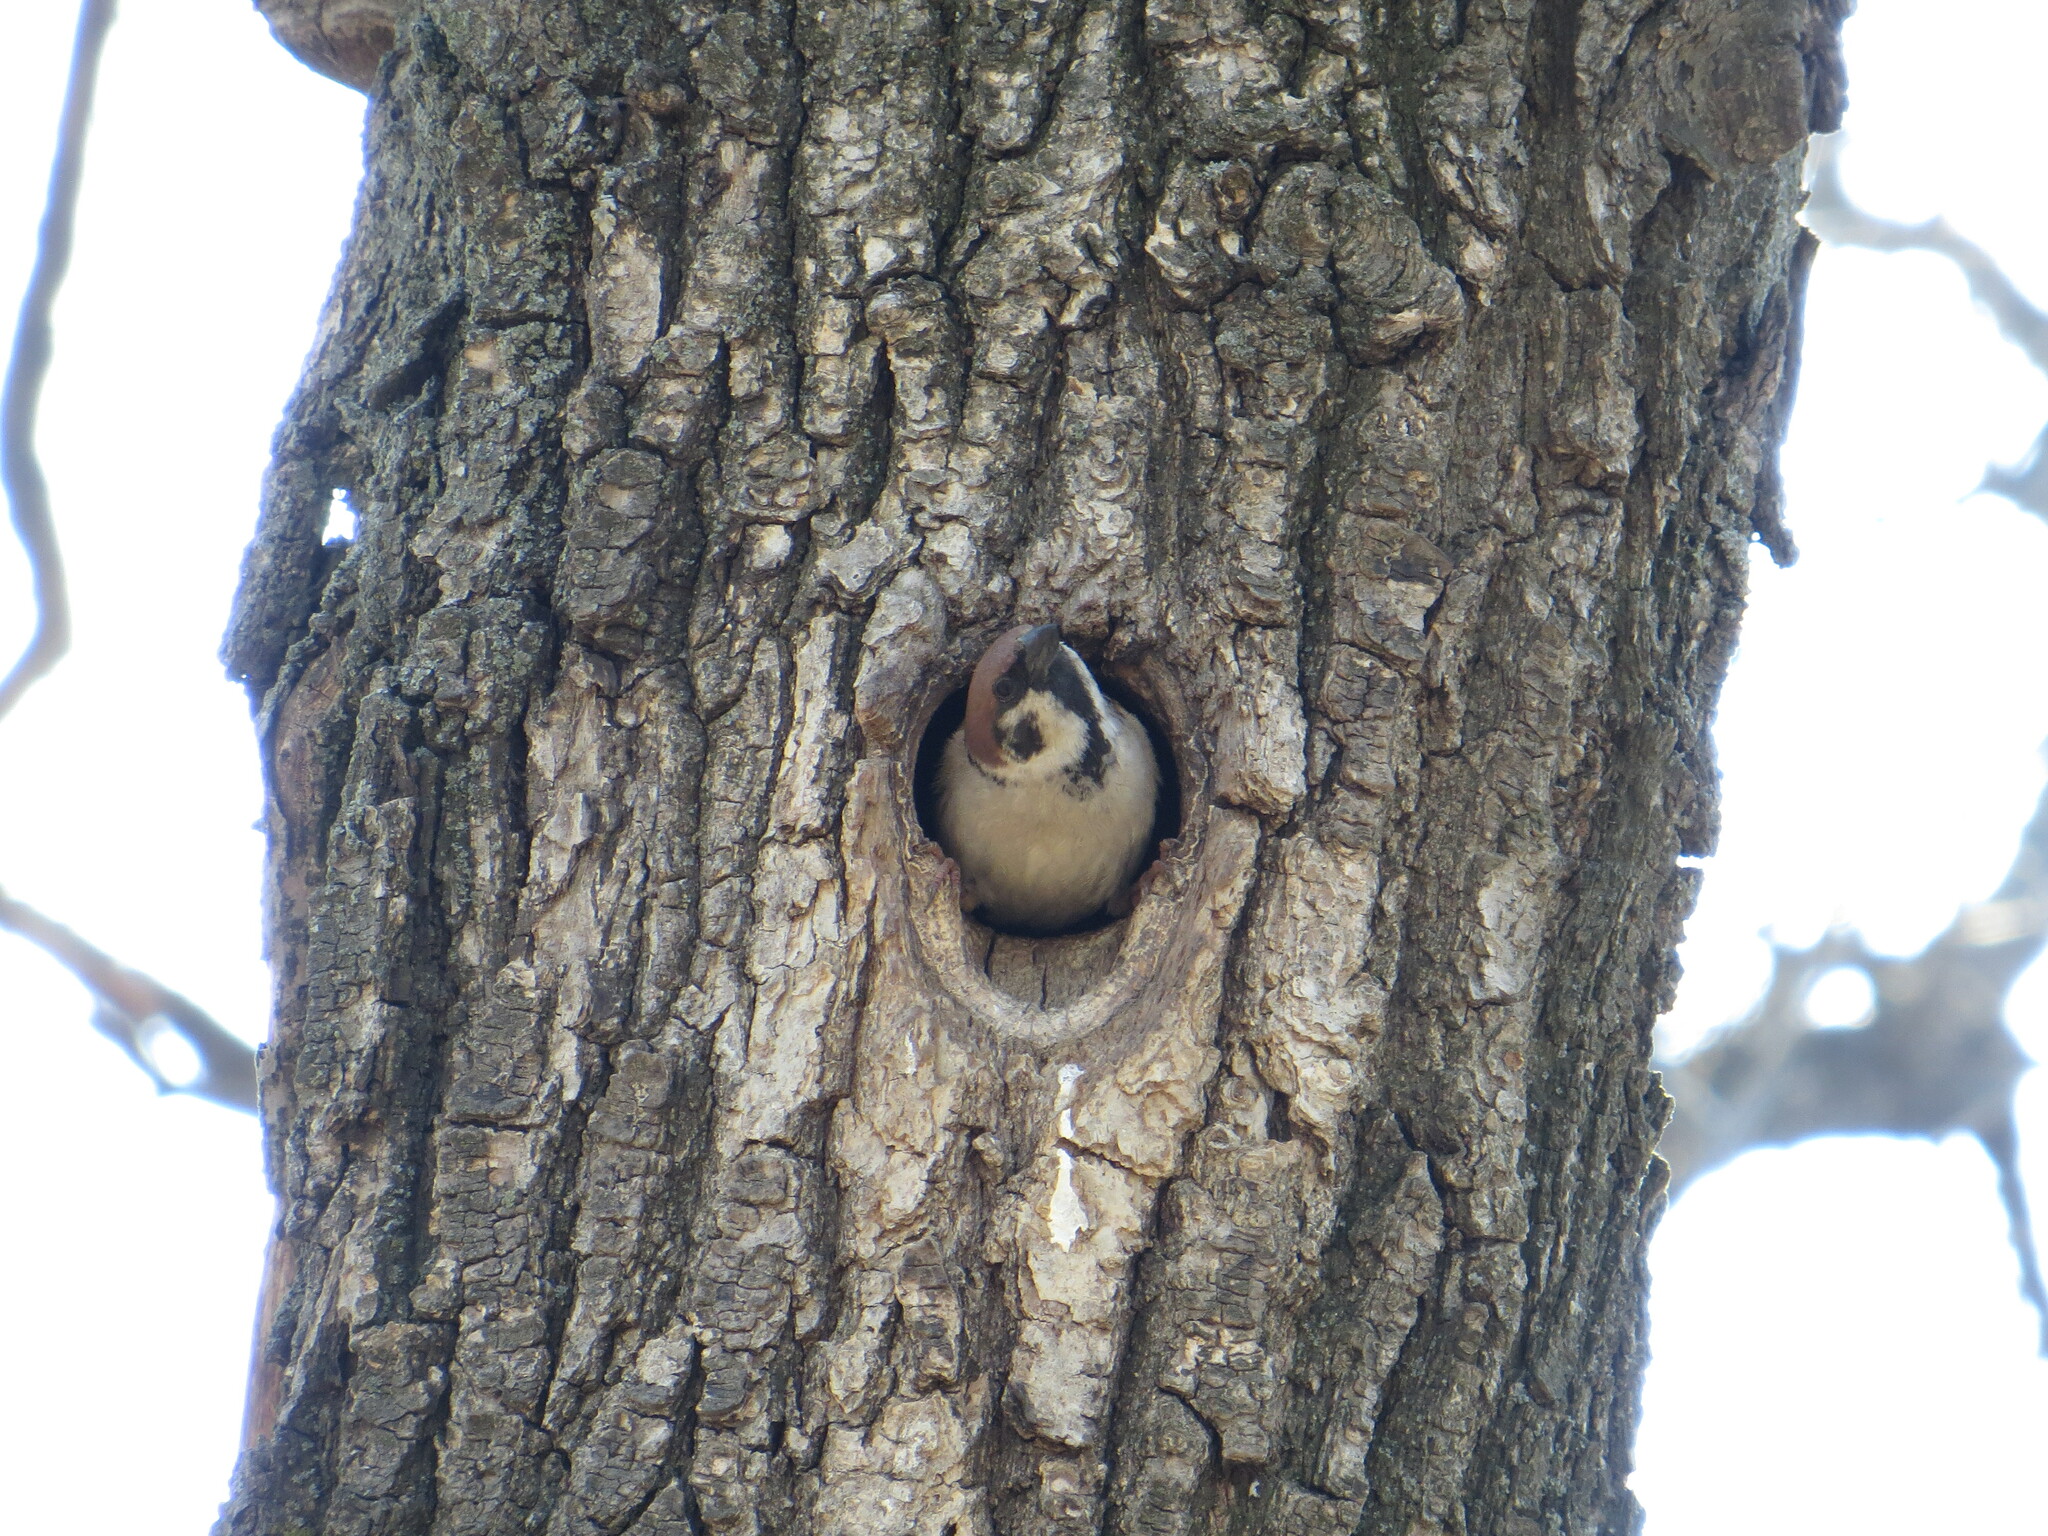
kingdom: Animalia
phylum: Chordata
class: Aves
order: Passeriformes
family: Passeridae
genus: Passer
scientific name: Passer montanus
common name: Eurasian tree sparrow
